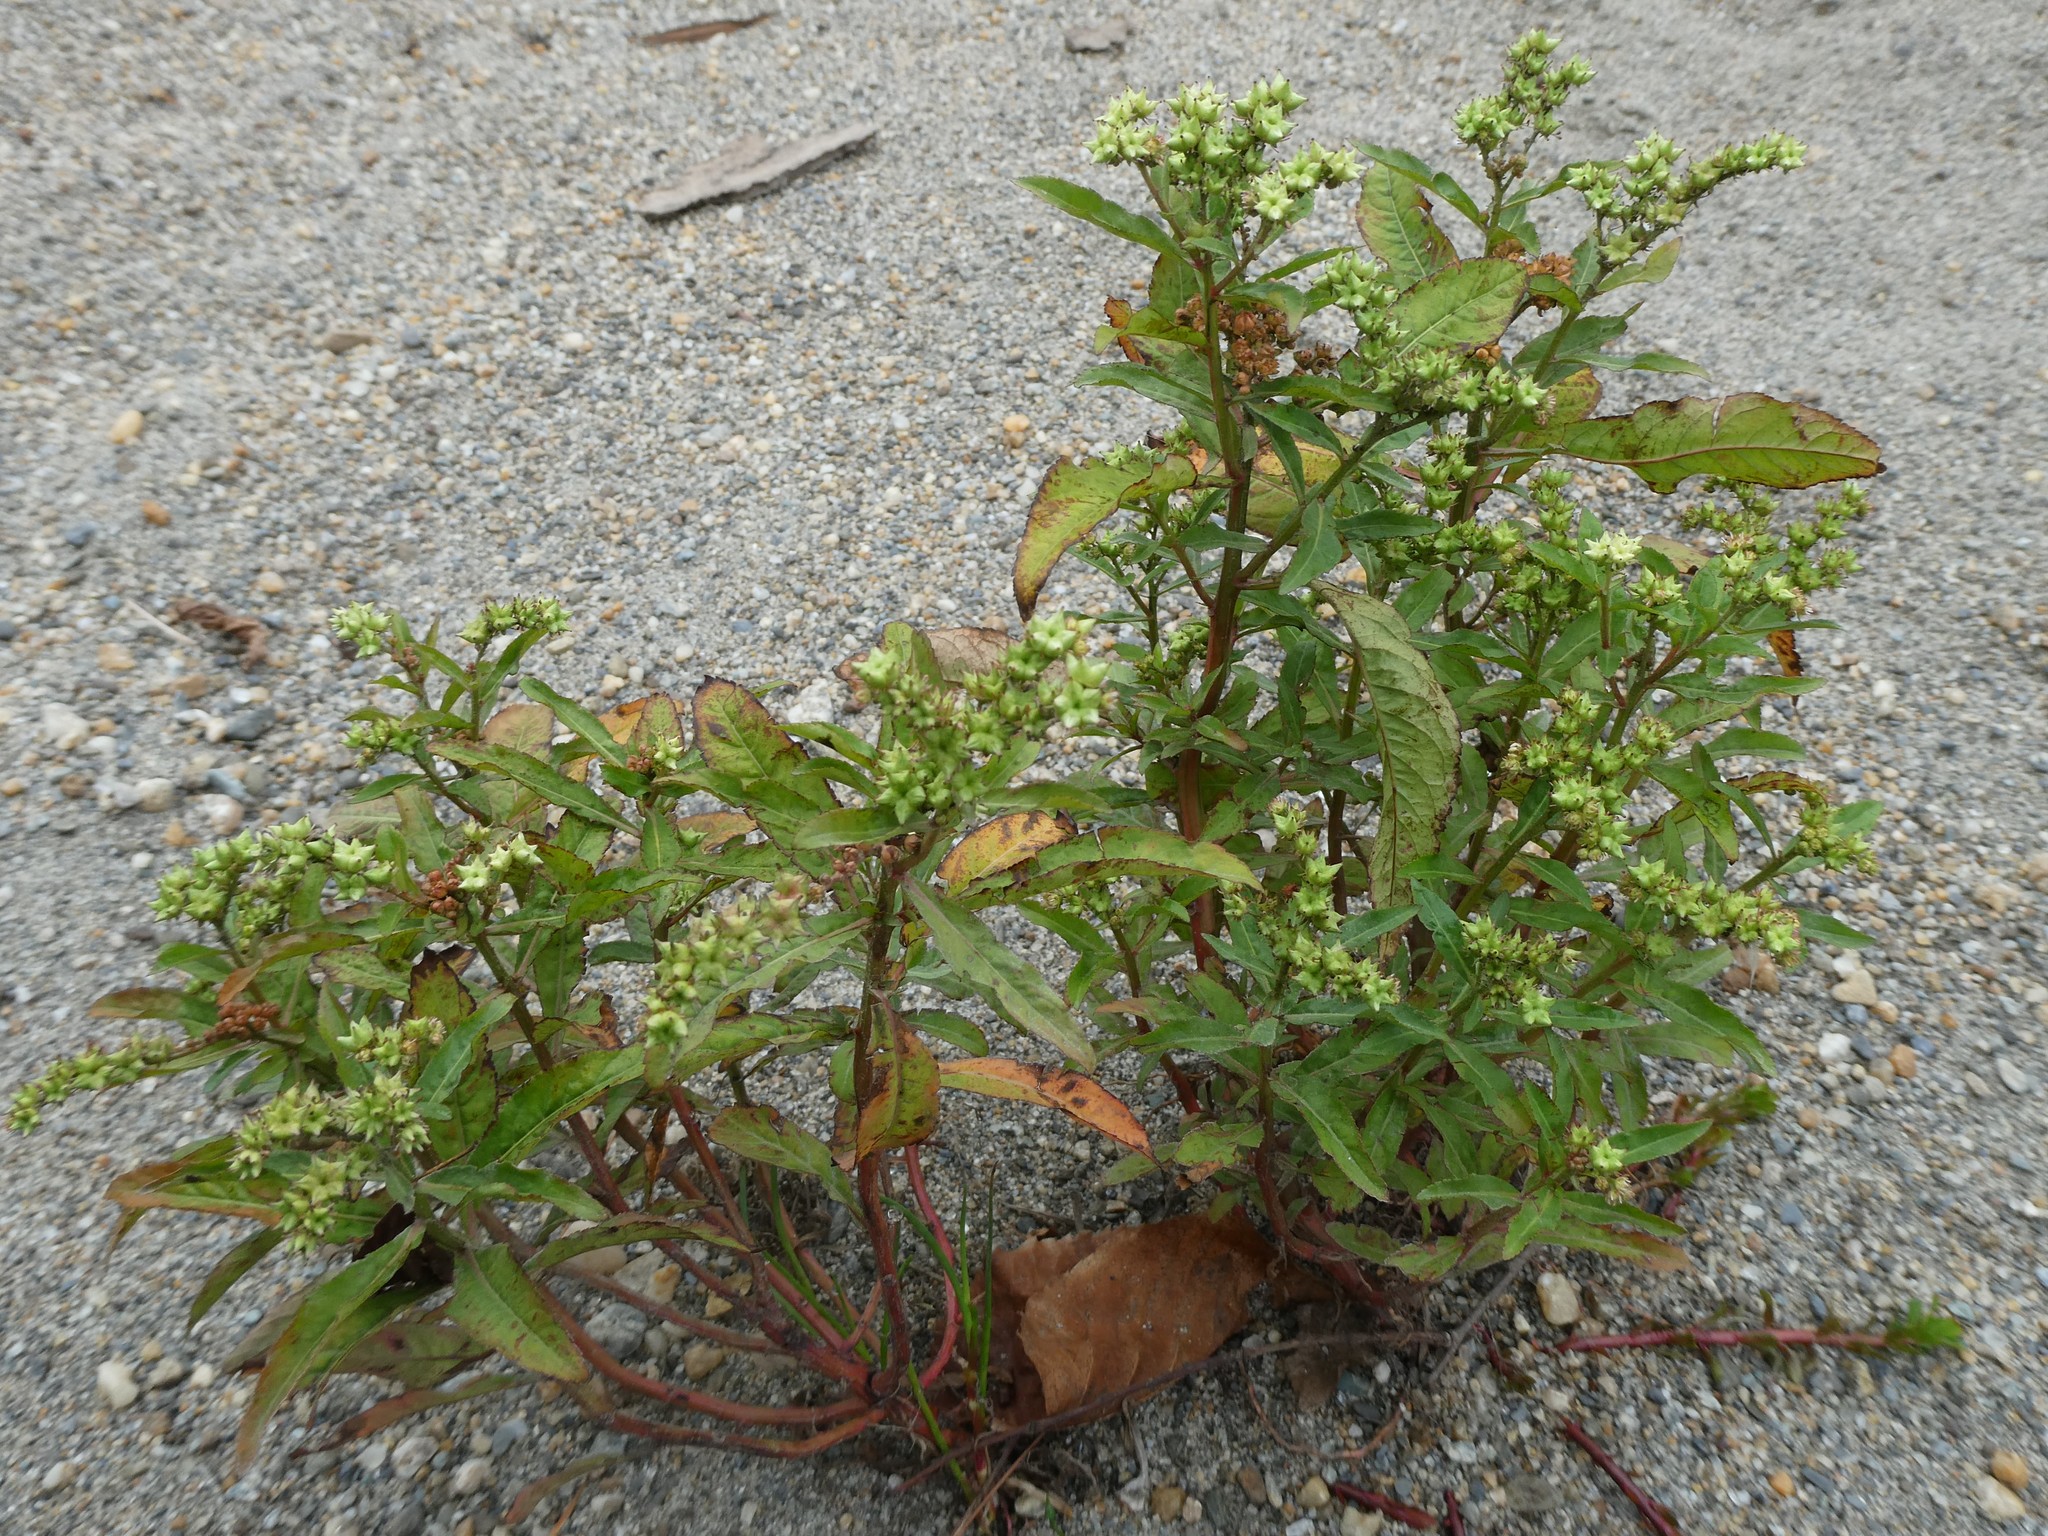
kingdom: Plantae
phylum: Tracheophyta
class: Magnoliopsida
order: Saxifragales
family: Penthoraceae
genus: Penthorum
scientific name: Penthorum sedoides
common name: Ditch stonecrop
